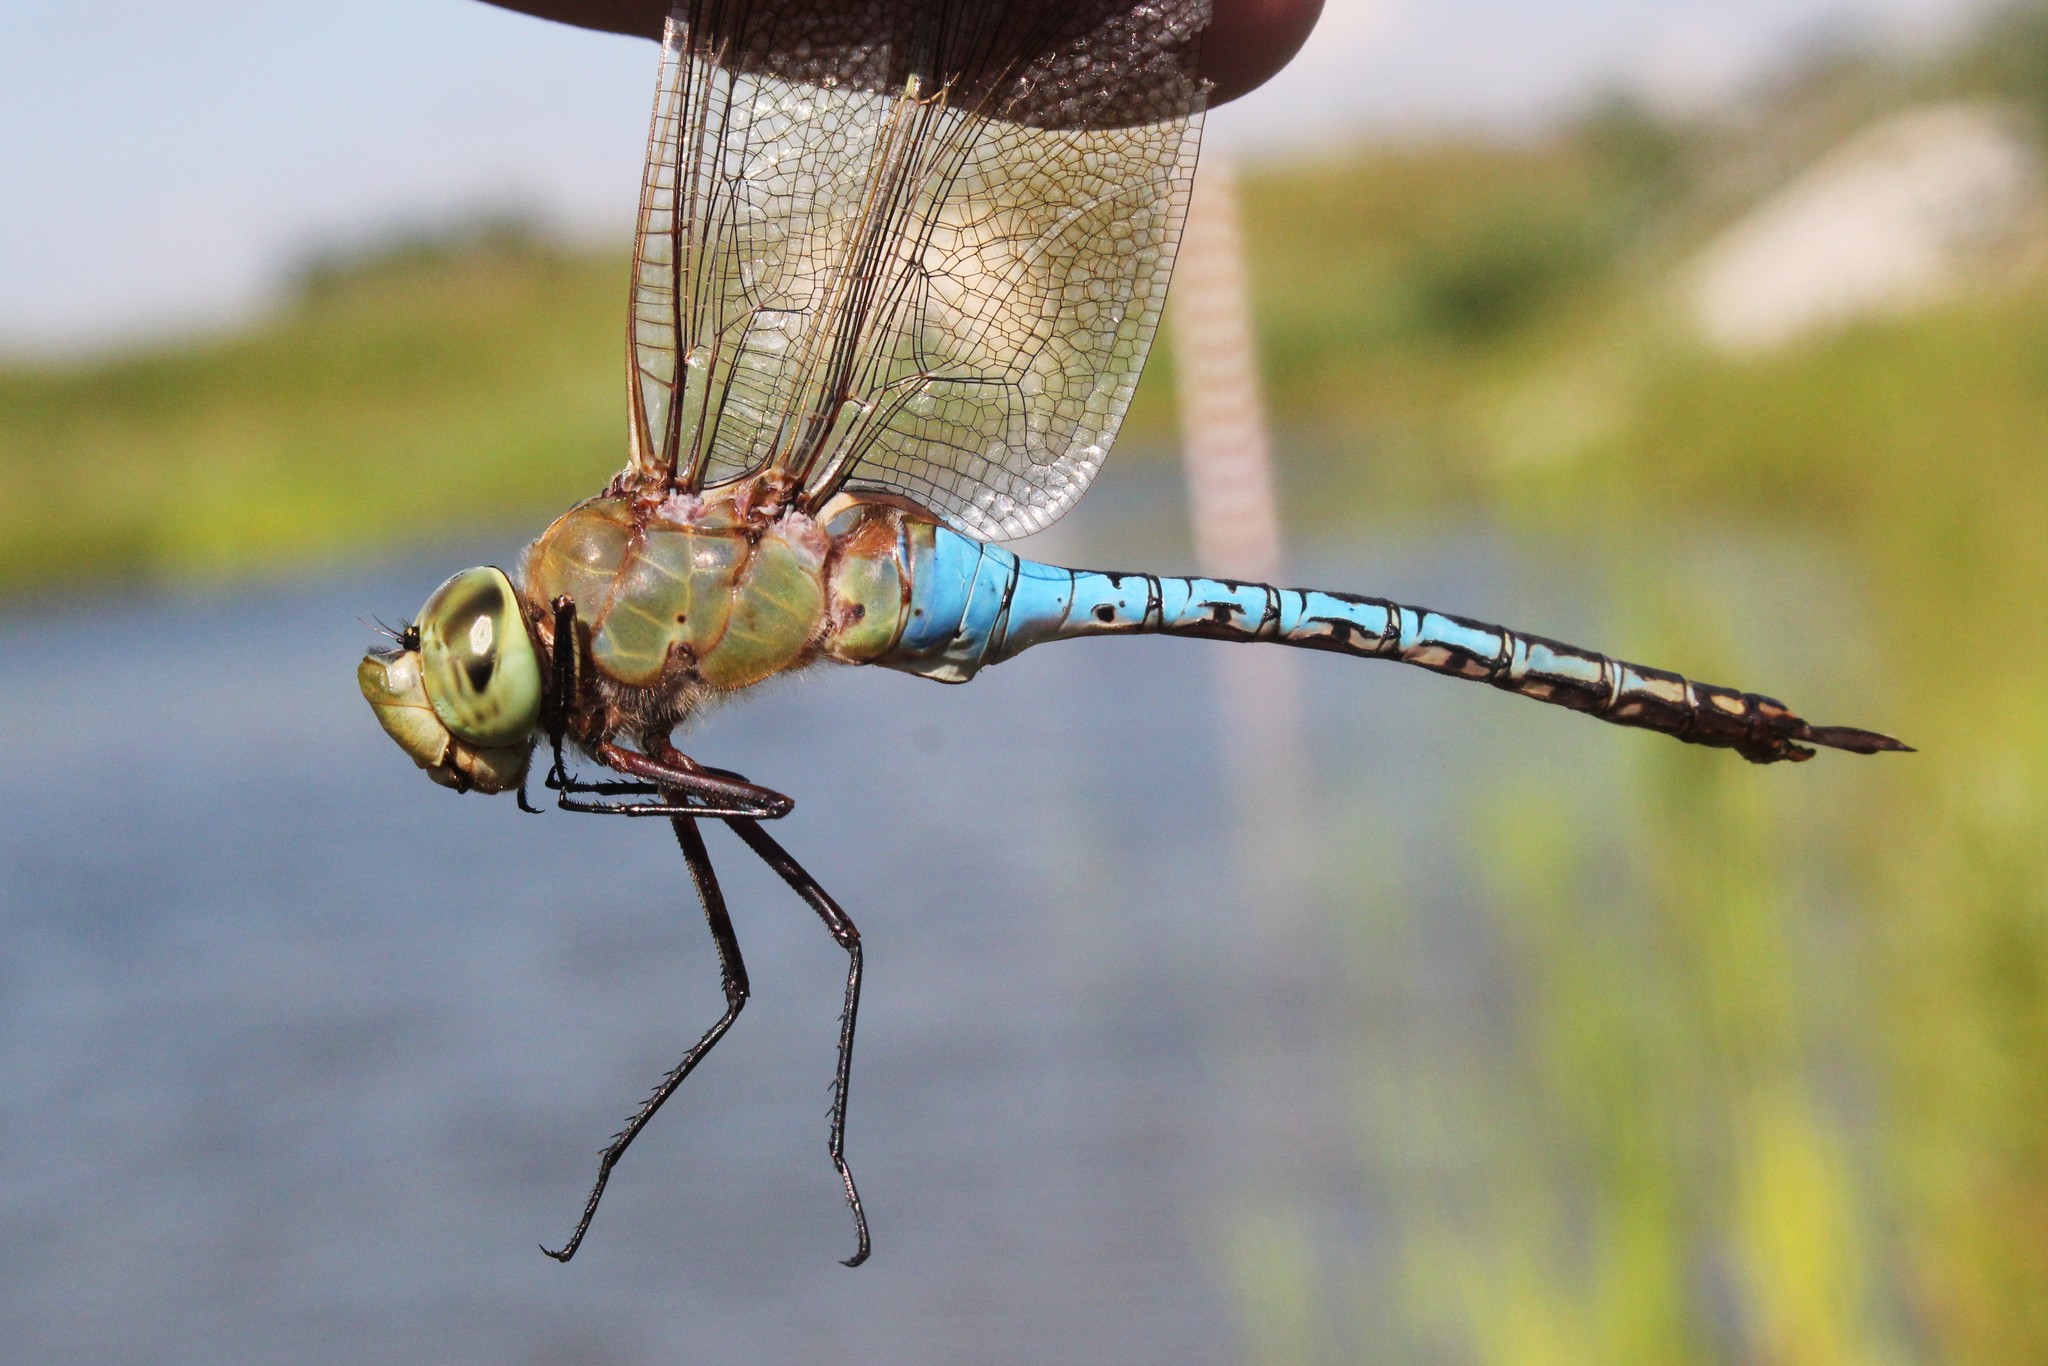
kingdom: Animalia
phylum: Arthropoda
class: Insecta
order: Odonata
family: Aeshnidae
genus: Anax
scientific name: Anax junius
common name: Common green darner
